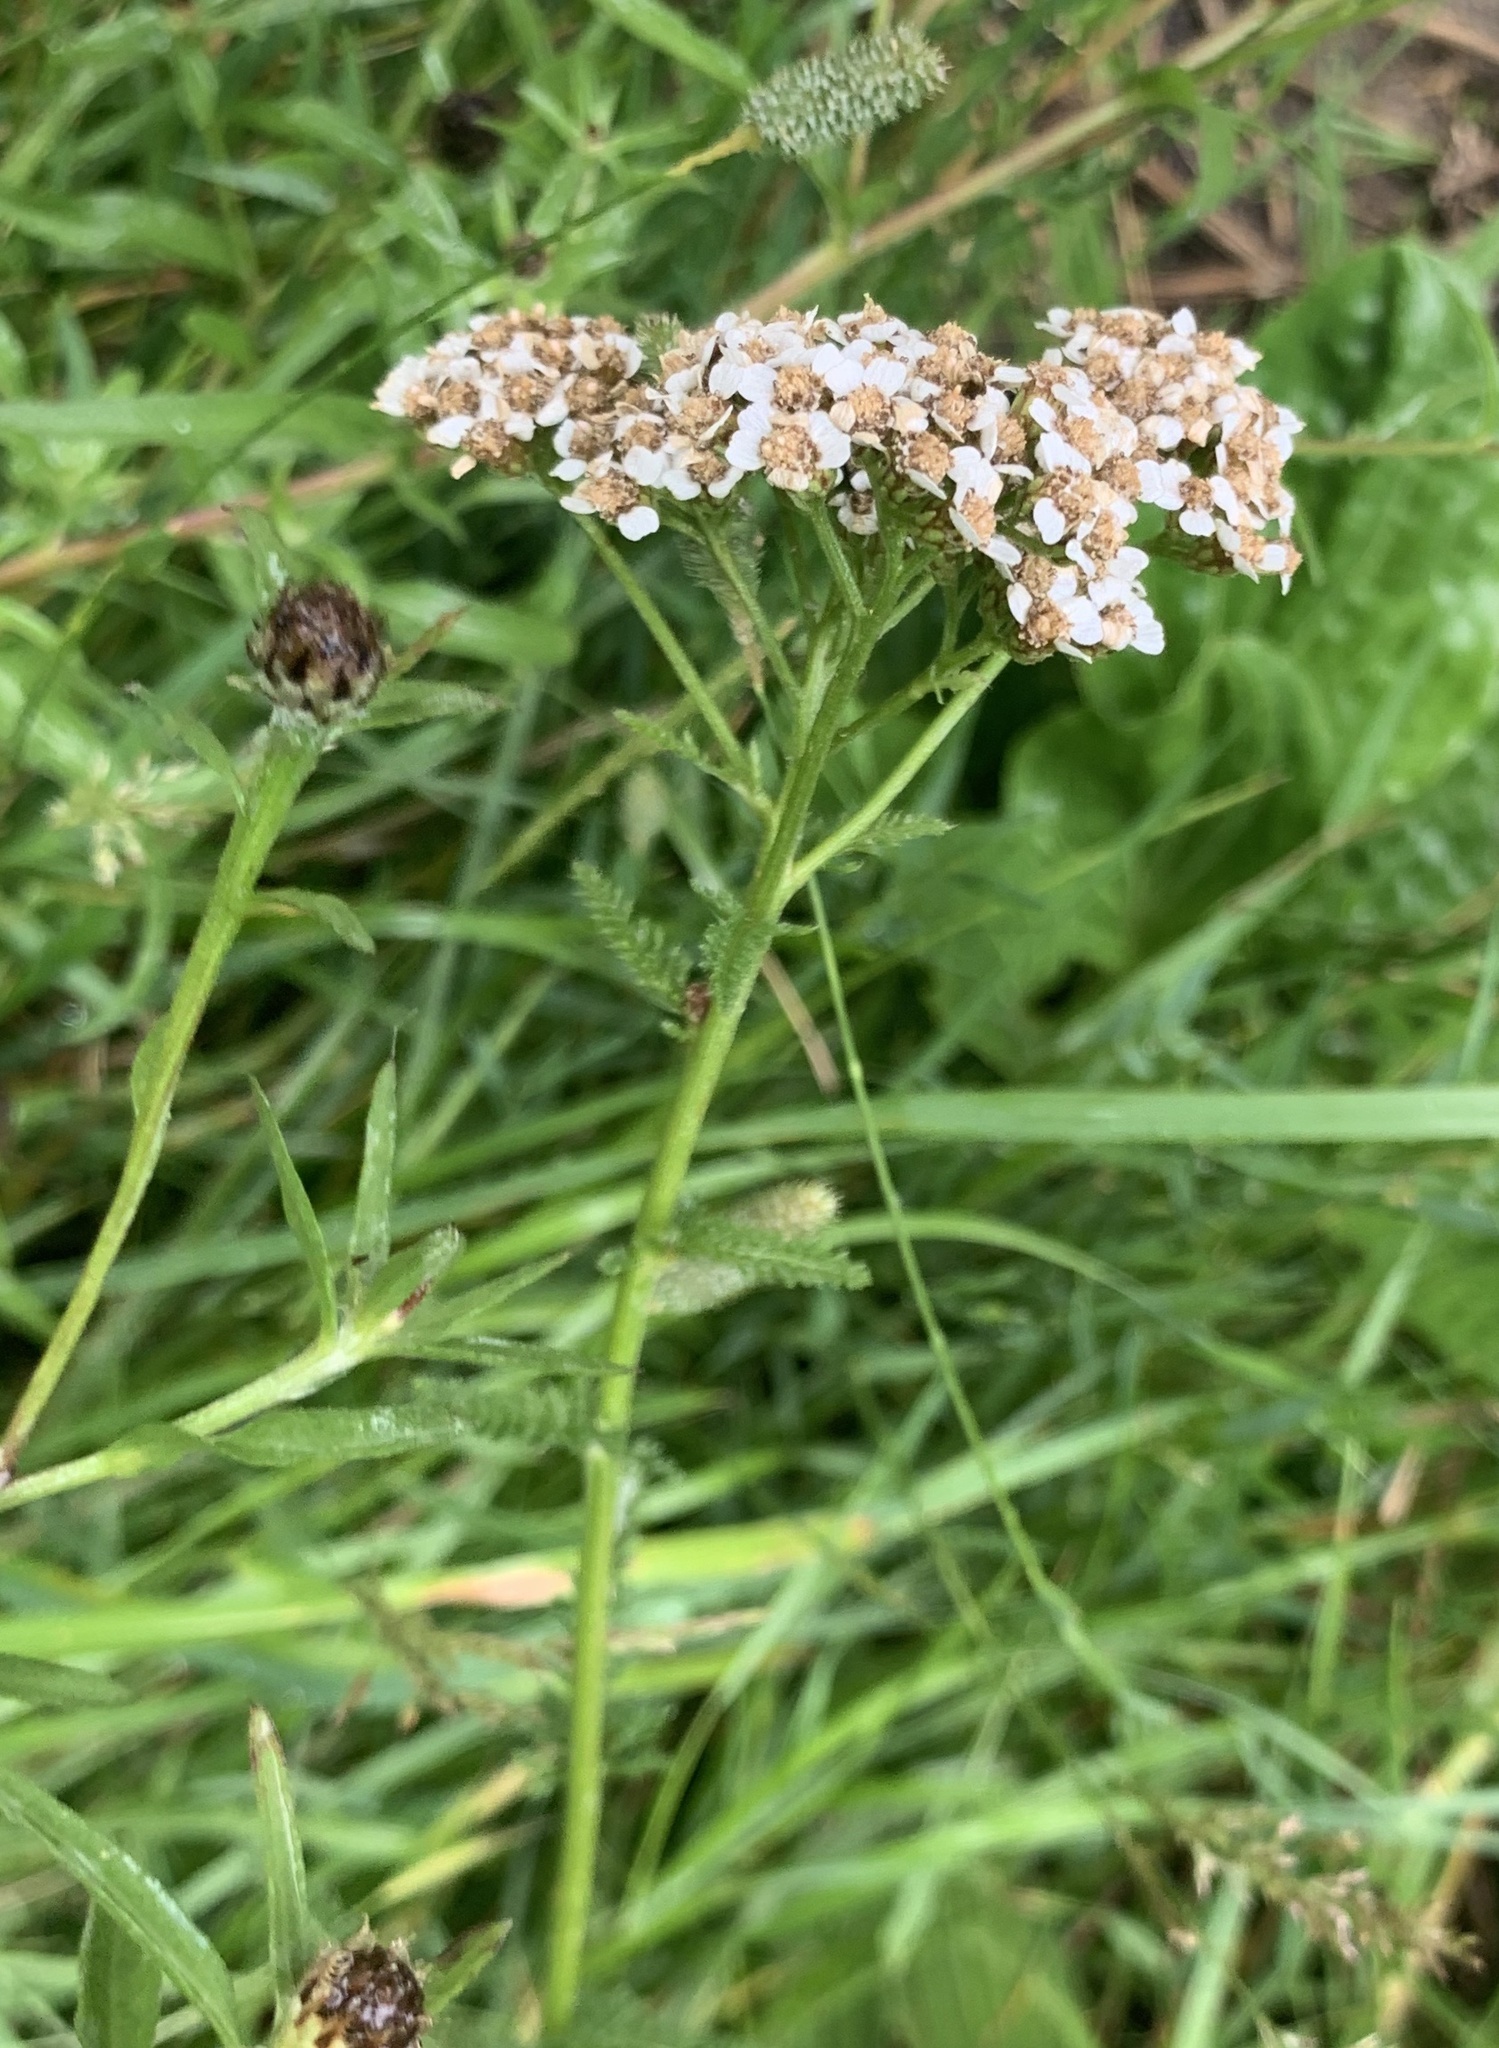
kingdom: Plantae
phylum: Tracheophyta
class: Magnoliopsida
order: Asterales
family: Asteraceae
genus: Achillea
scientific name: Achillea millefolium
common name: Yarrow
